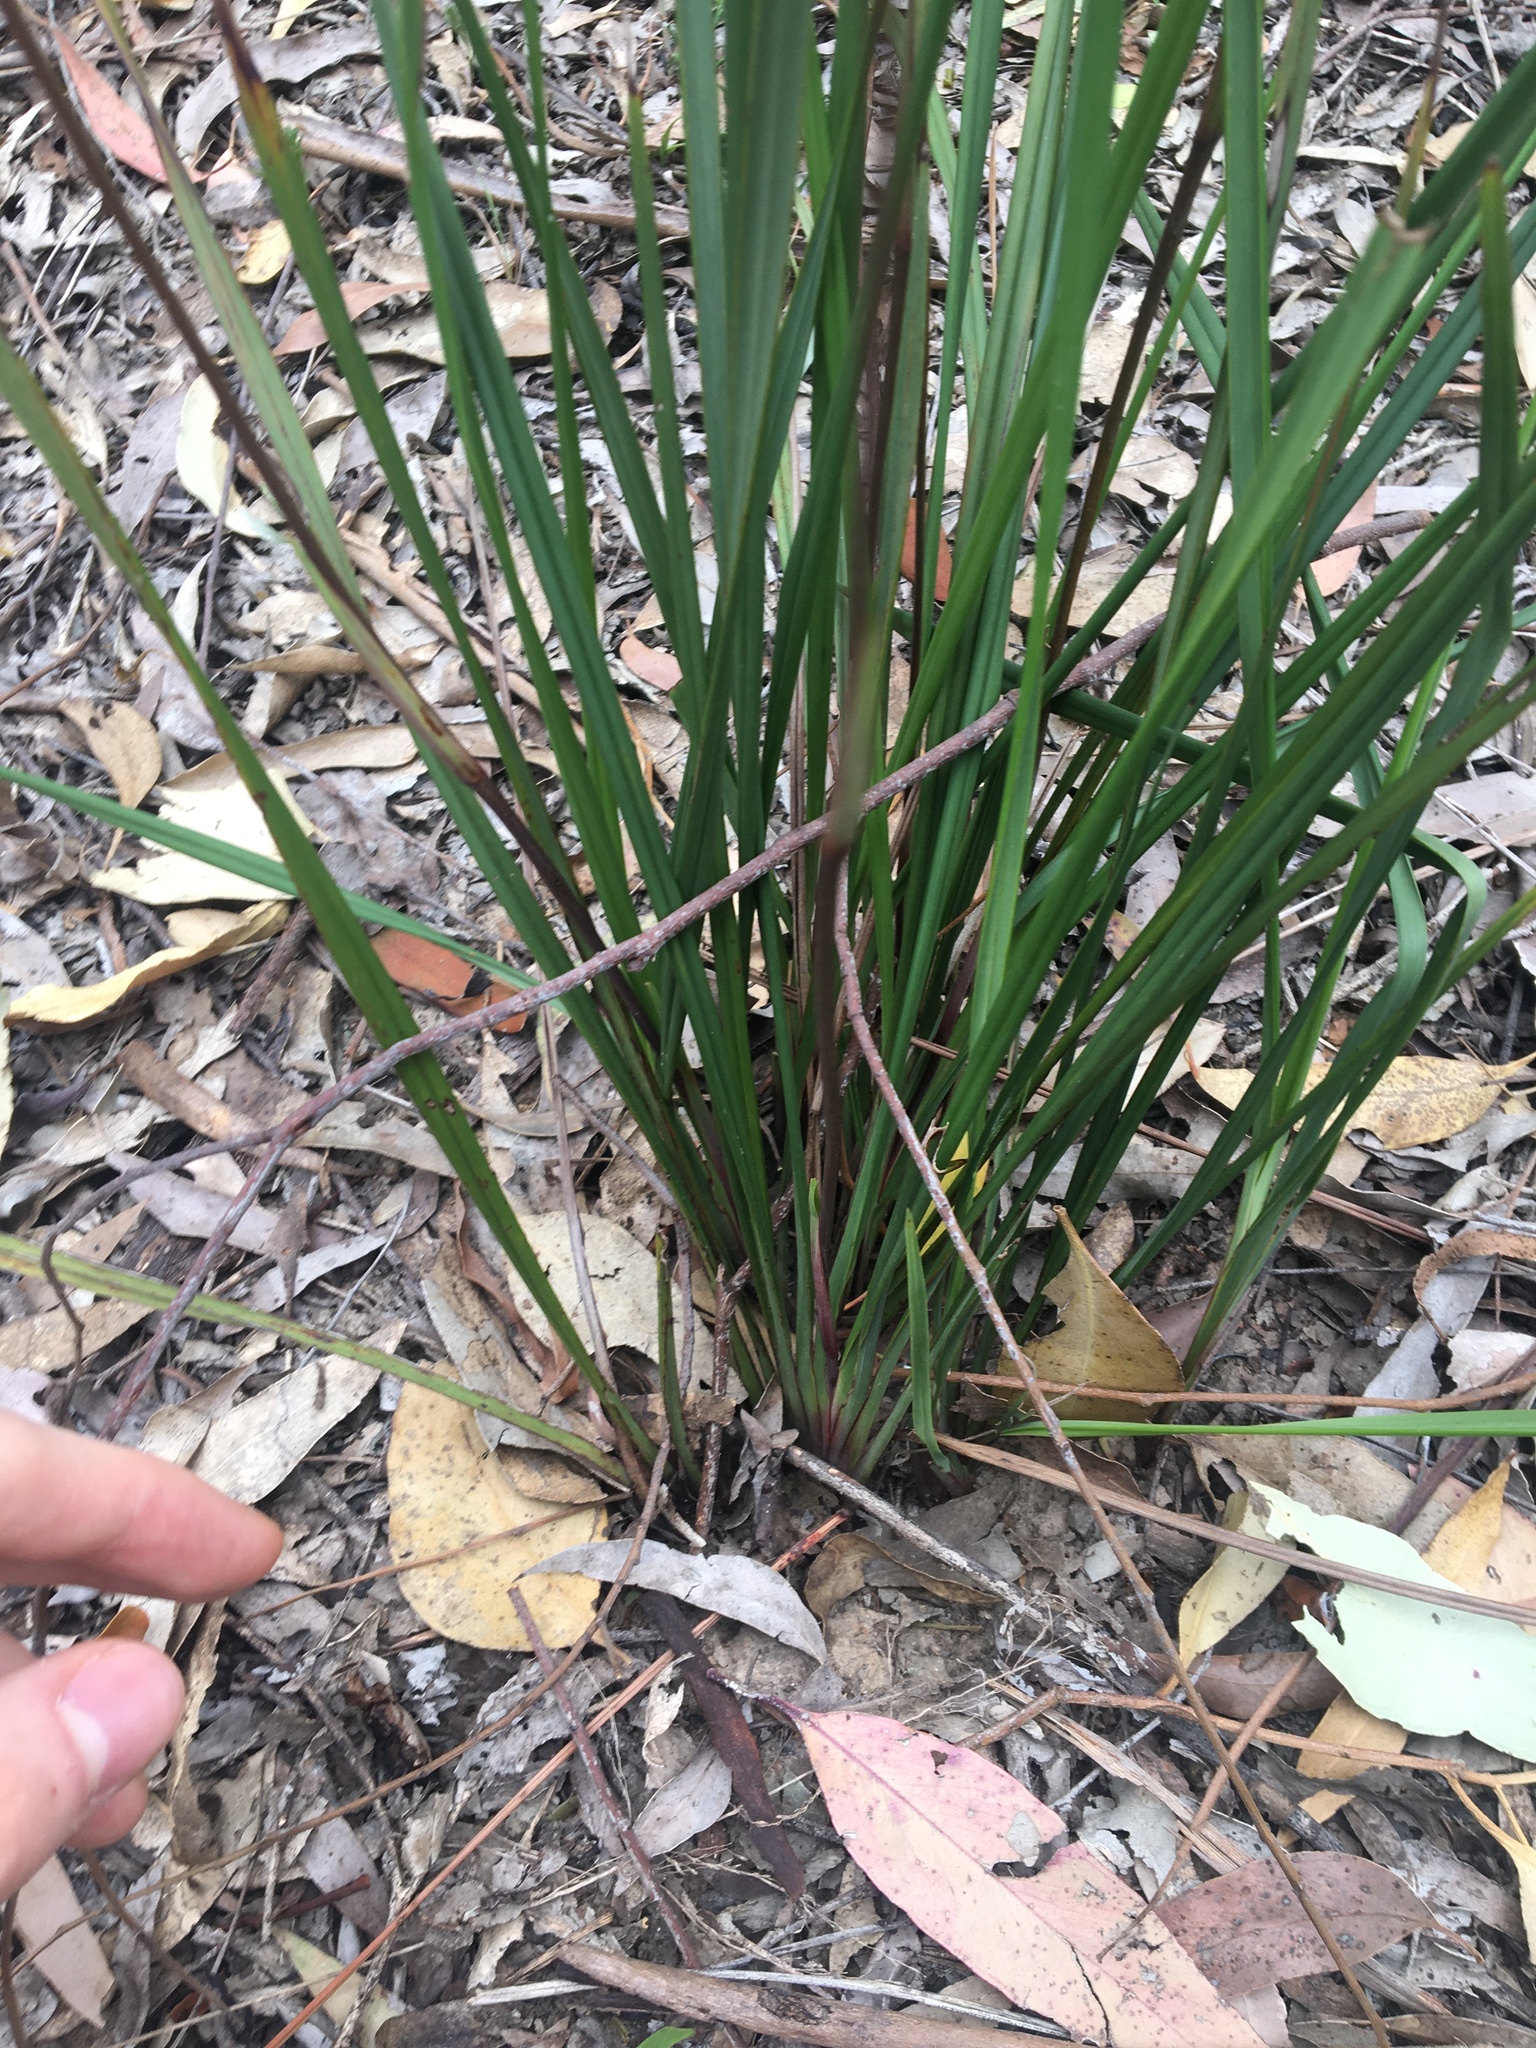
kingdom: Plantae
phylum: Tracheophyta
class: Liliopsida
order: Asparagales
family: Asphodelaceae
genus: Dianella
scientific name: Dianella revoluta
